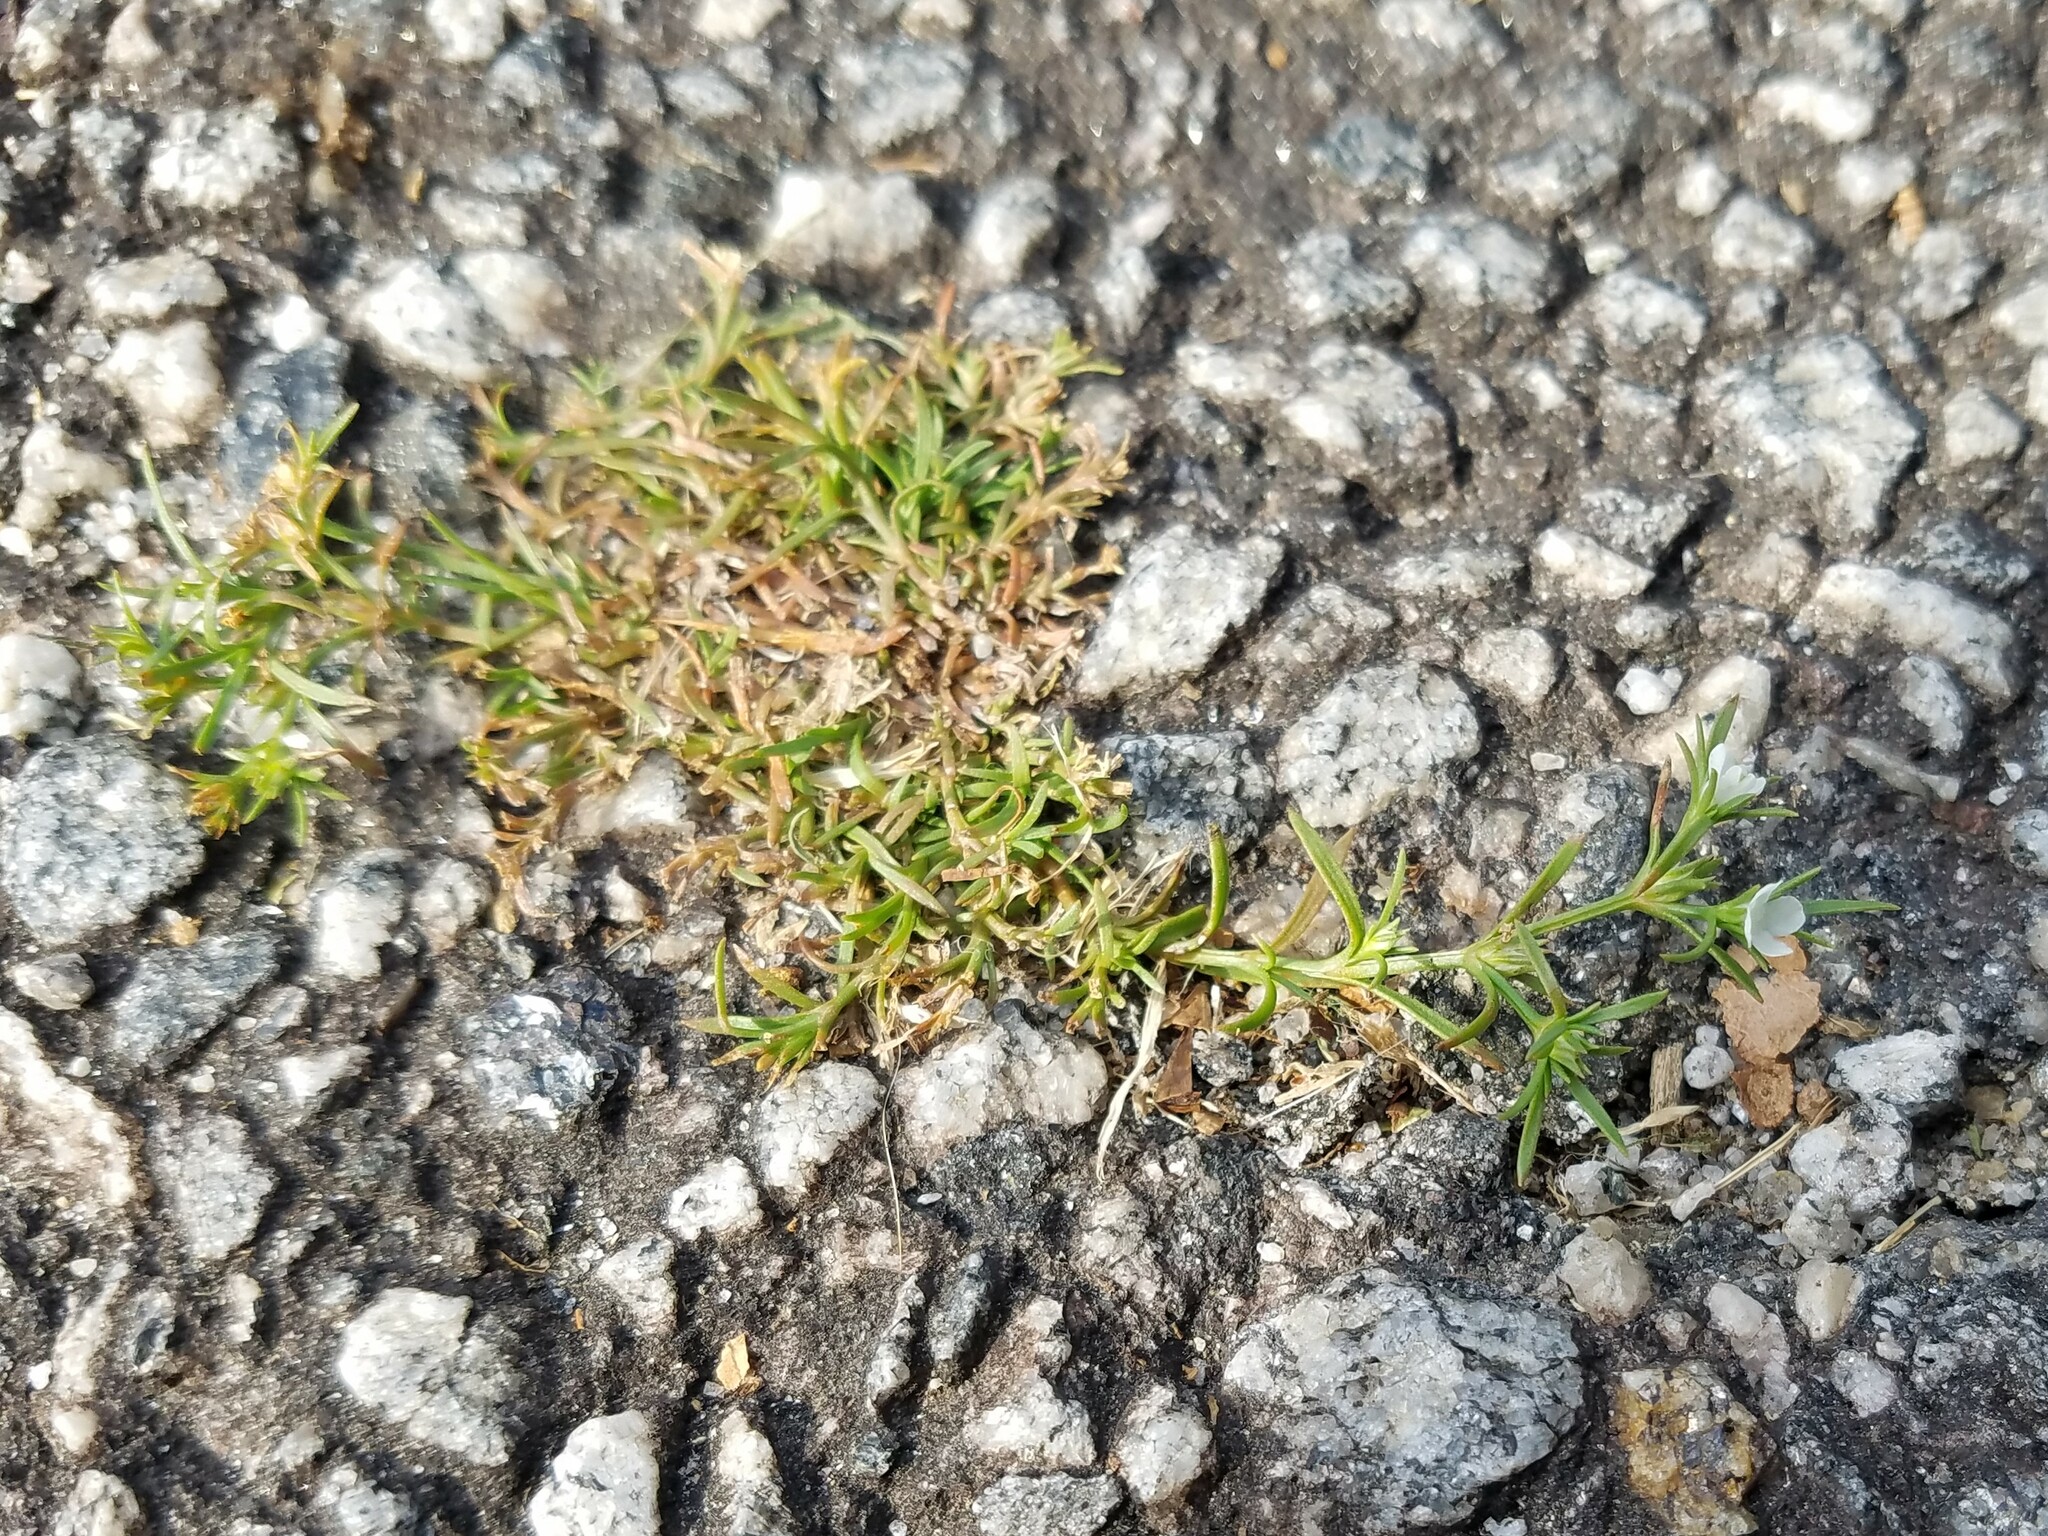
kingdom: Plantae
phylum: Tracheophyta
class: Magnoliopsida
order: Lamiales
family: Tetrachondraceae
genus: Polypremum
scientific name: Polypremum procumbens
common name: Juniper-leaf
